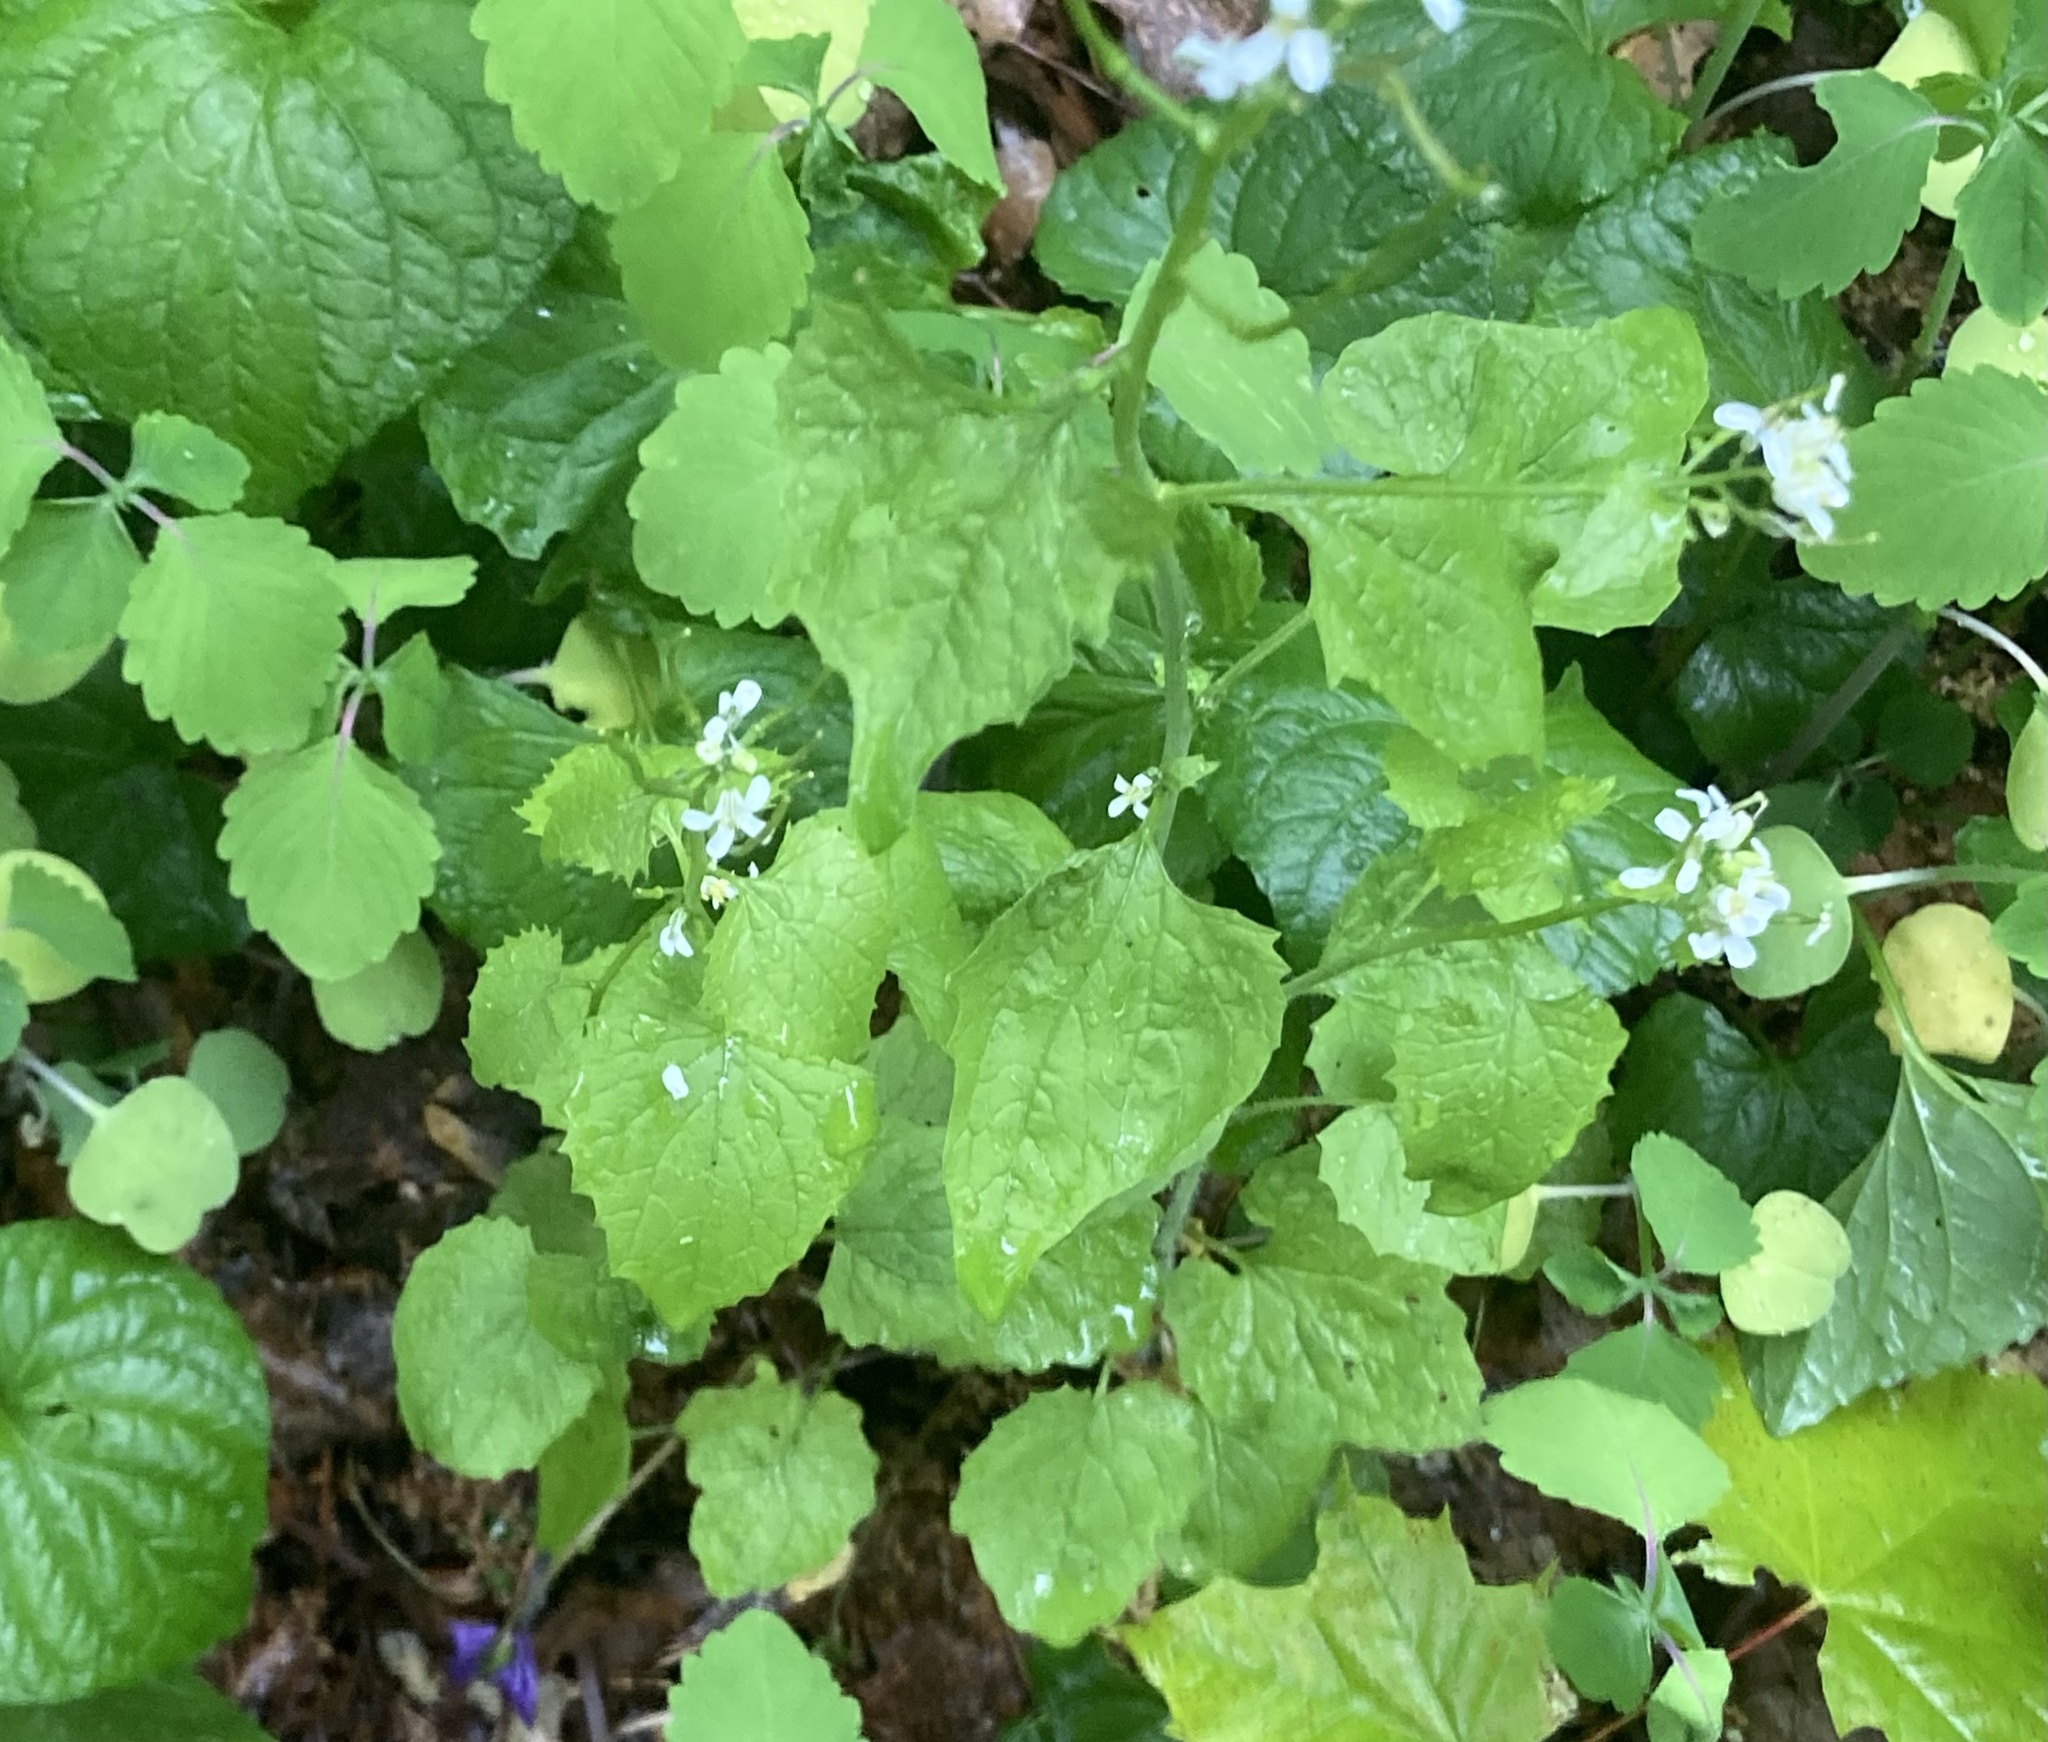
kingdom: Plantae
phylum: Tracheophyta
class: Magnoliopsida
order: Brassicales
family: Brassicaceae
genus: Alliaria
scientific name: Alliaria petiolata
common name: Garlic mustard
